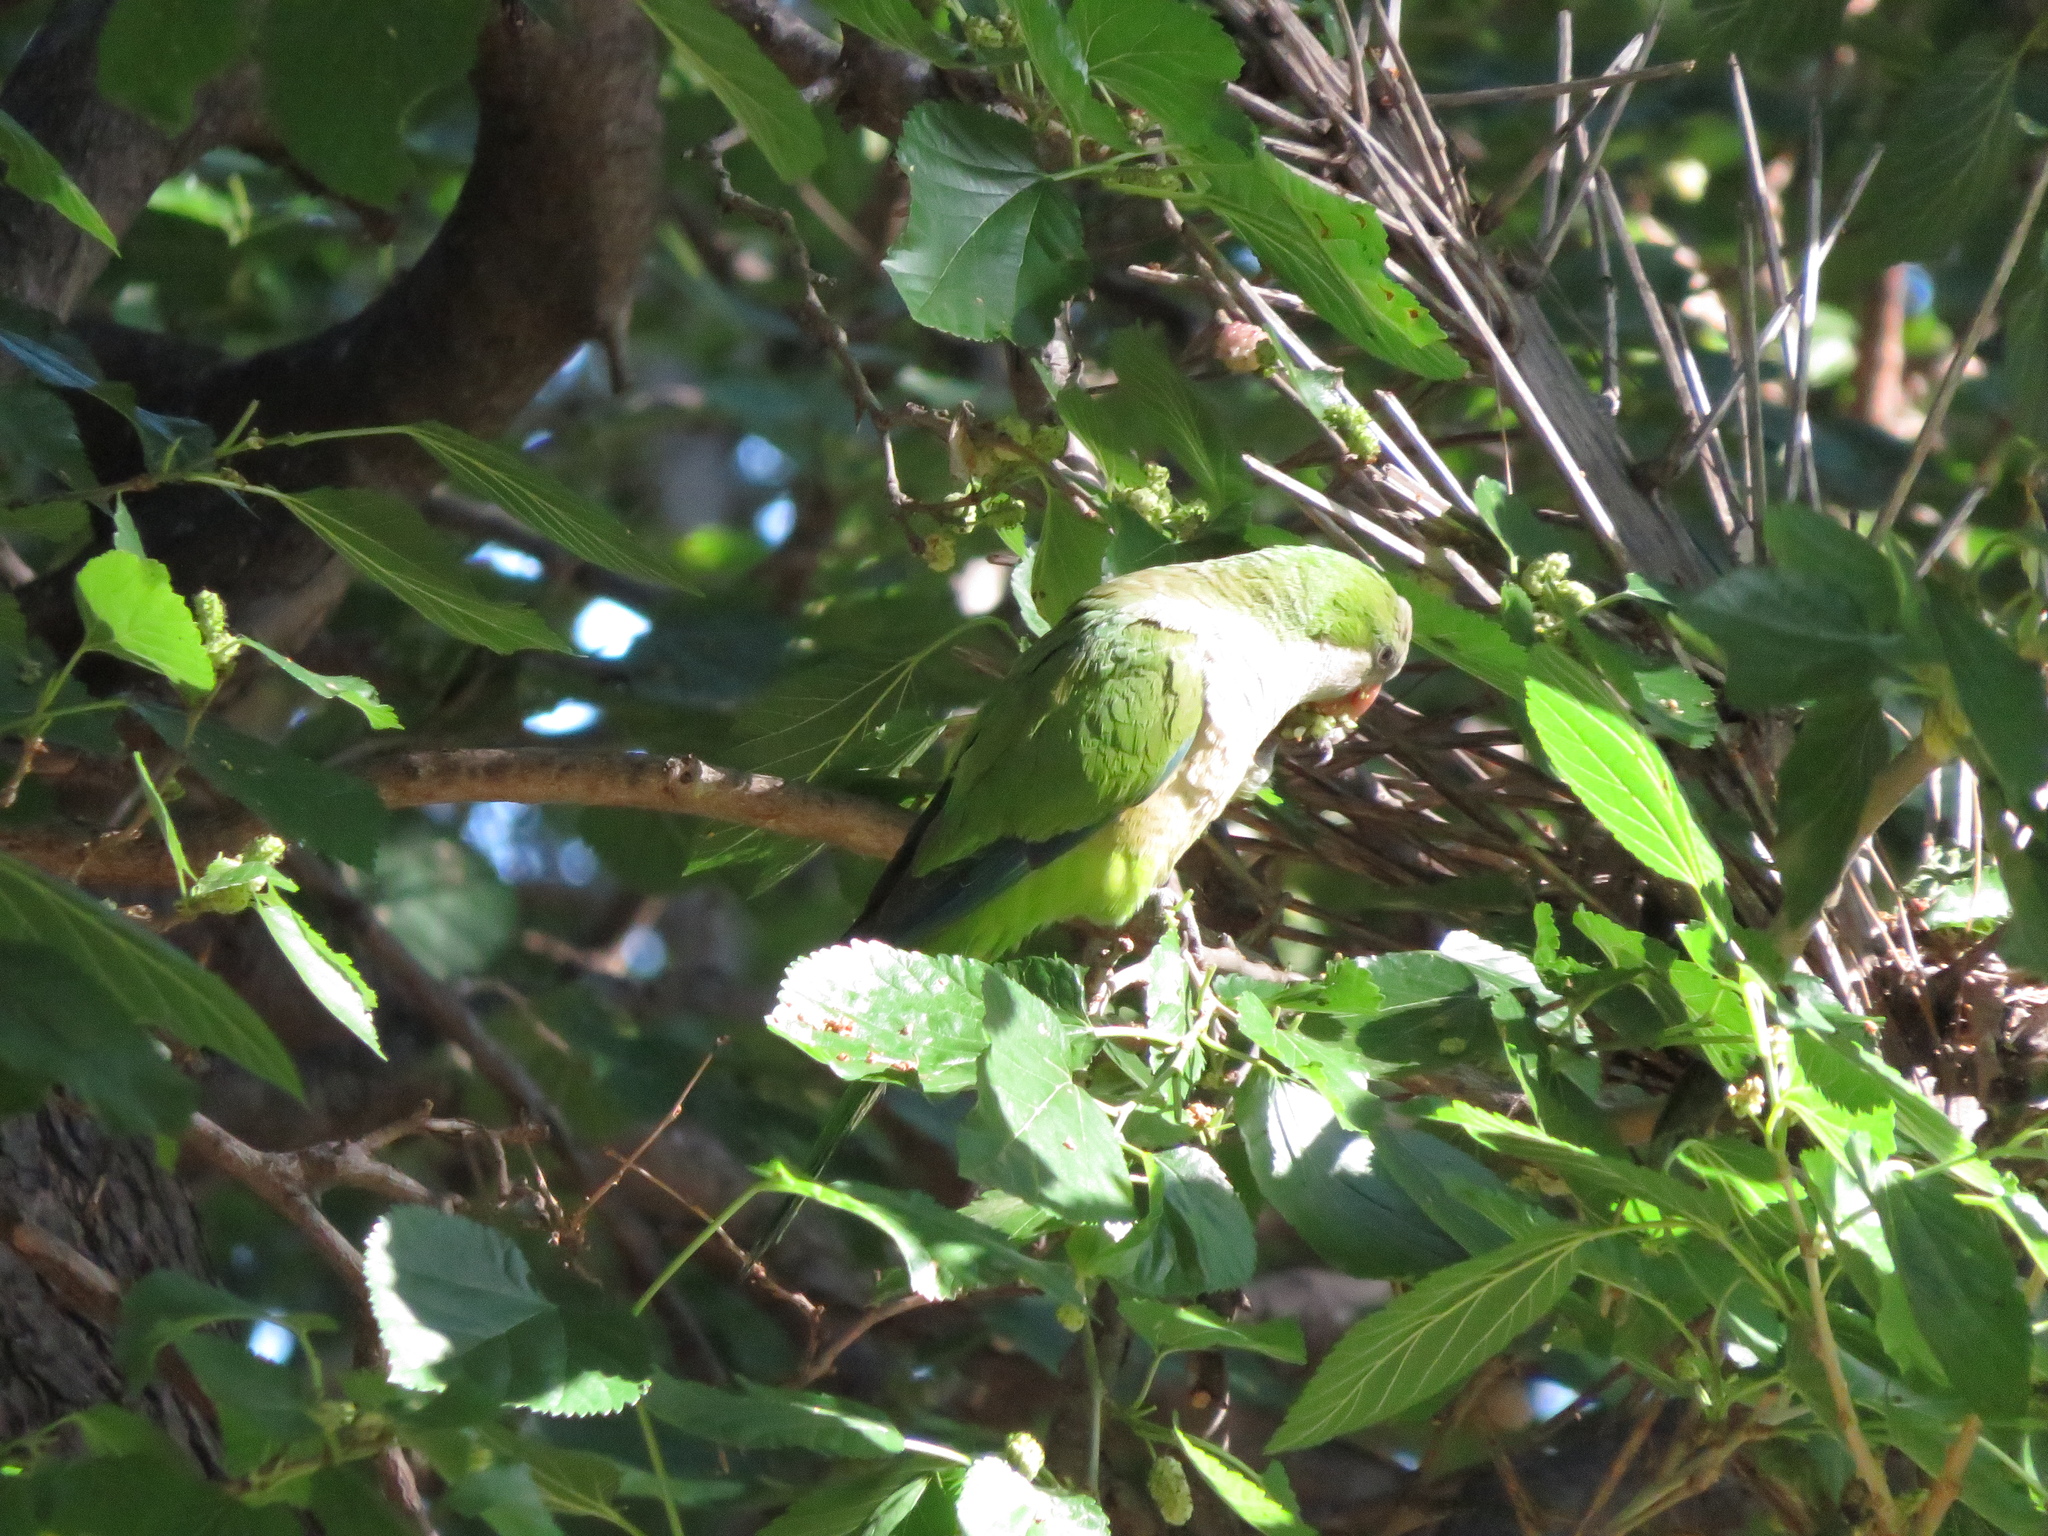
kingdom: Animalia
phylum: Chordata
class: Aves
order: Psittaciformes
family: Psittacidae
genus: Myiopsitta
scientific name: Myiopsitta monachus
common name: Monk parakeet
